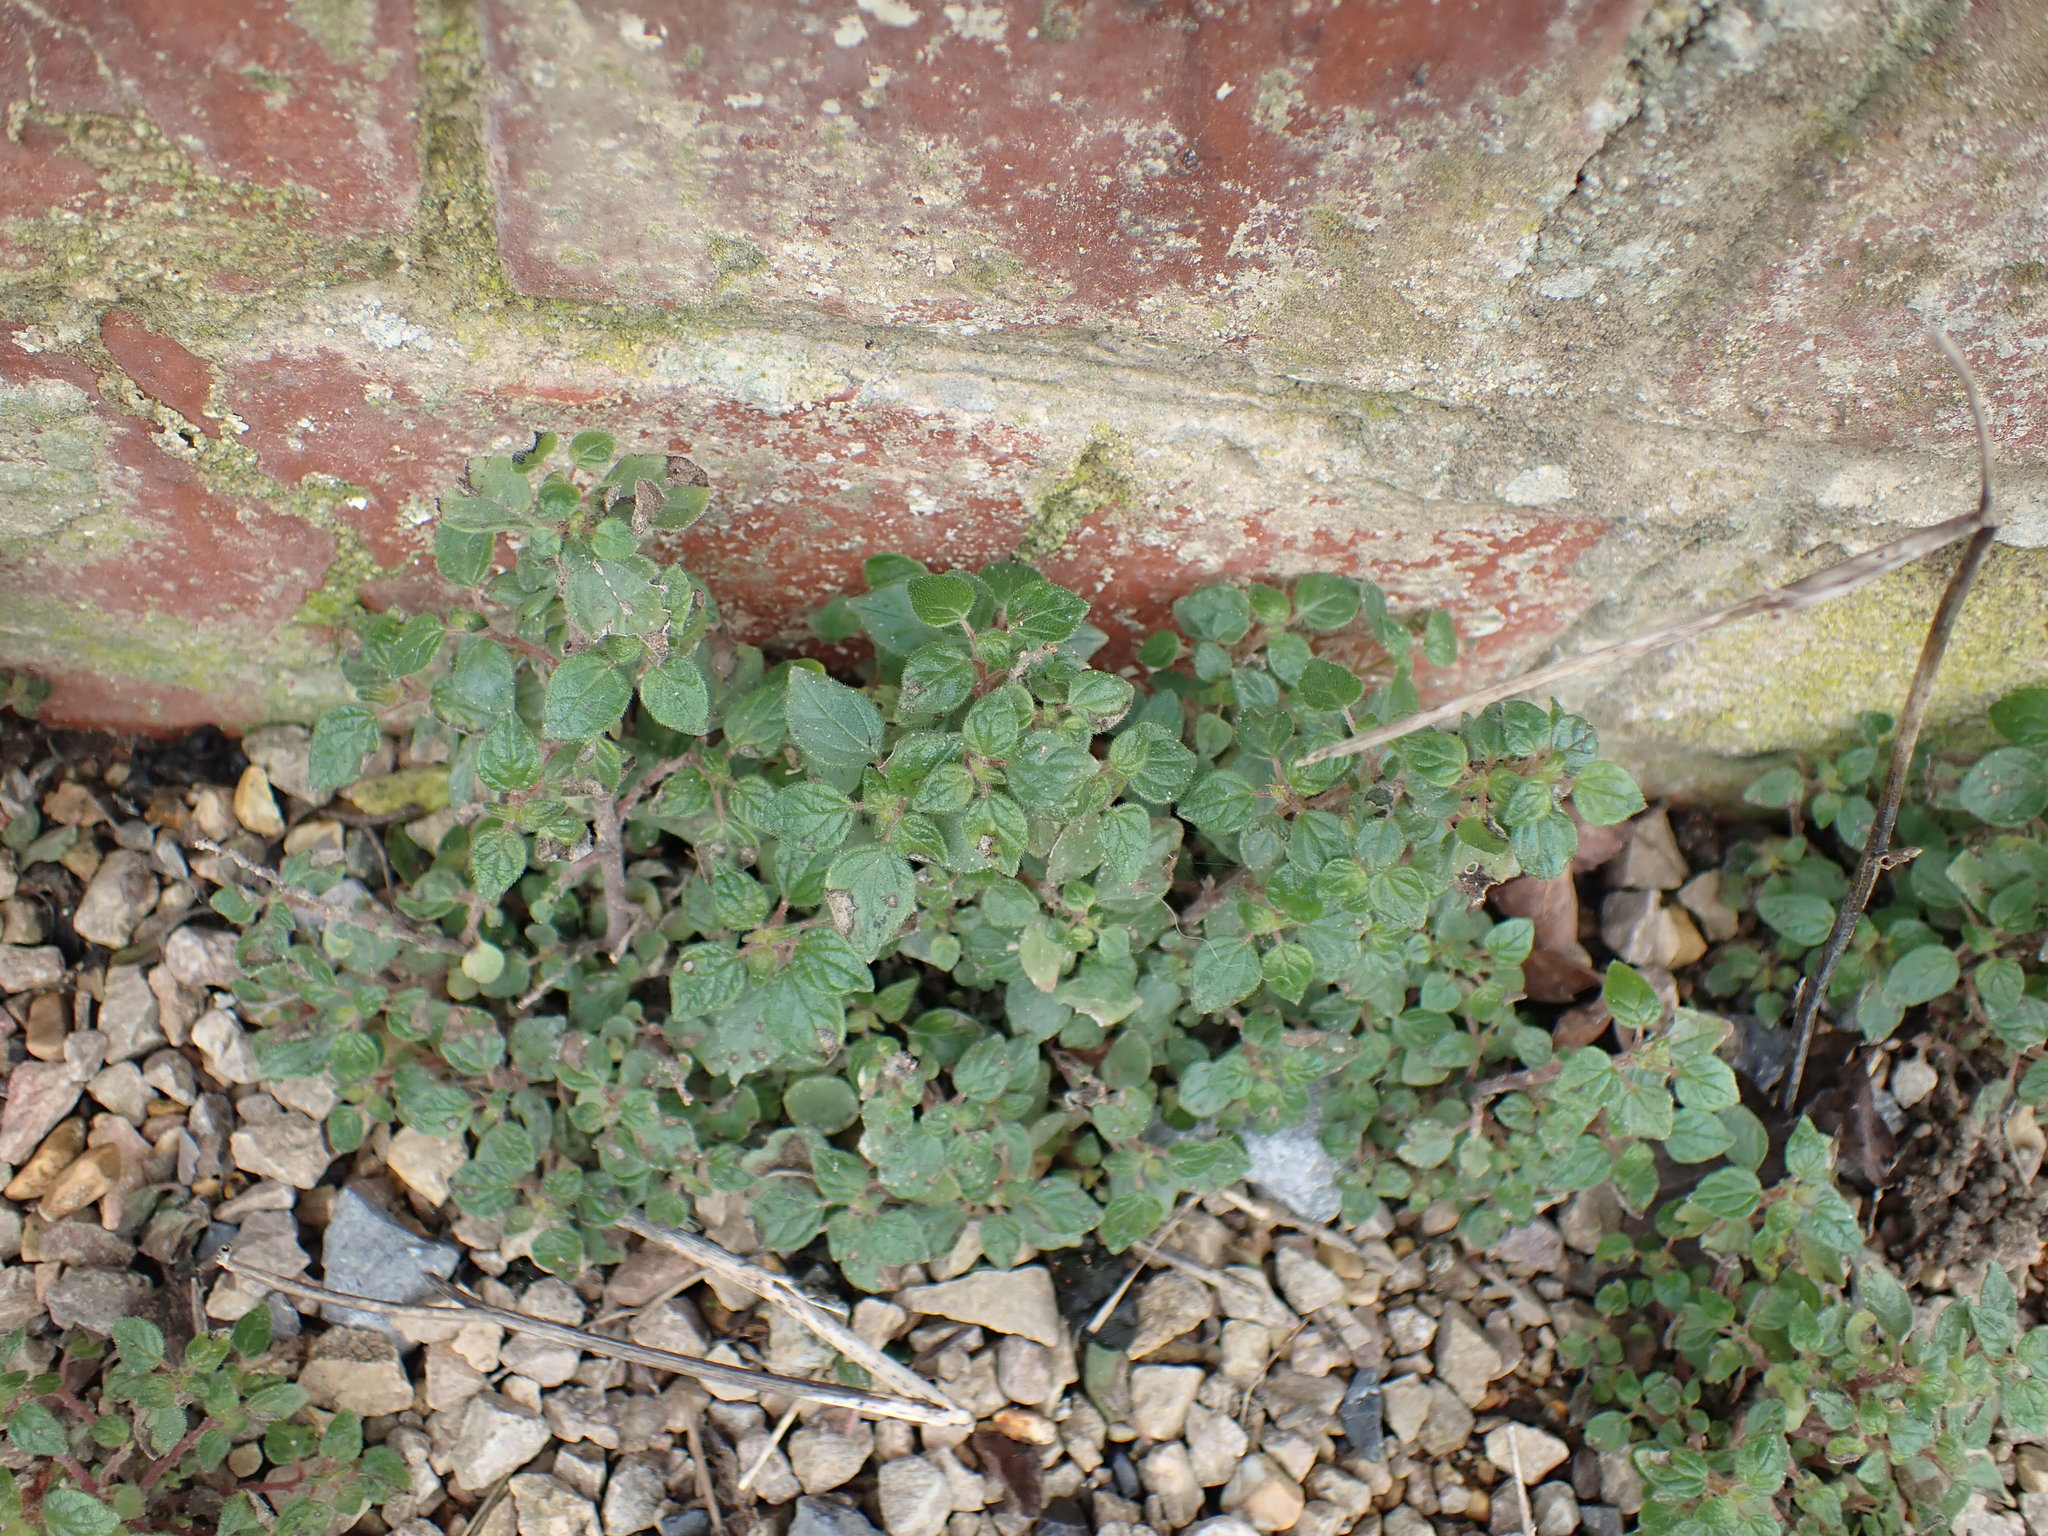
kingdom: Plantae
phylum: Tracheophyta
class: Magnoliopsida
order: Rosales
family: Urticaceae
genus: Parietaria
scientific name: Parietaria judaica
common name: Pellitory-of-the-wall
